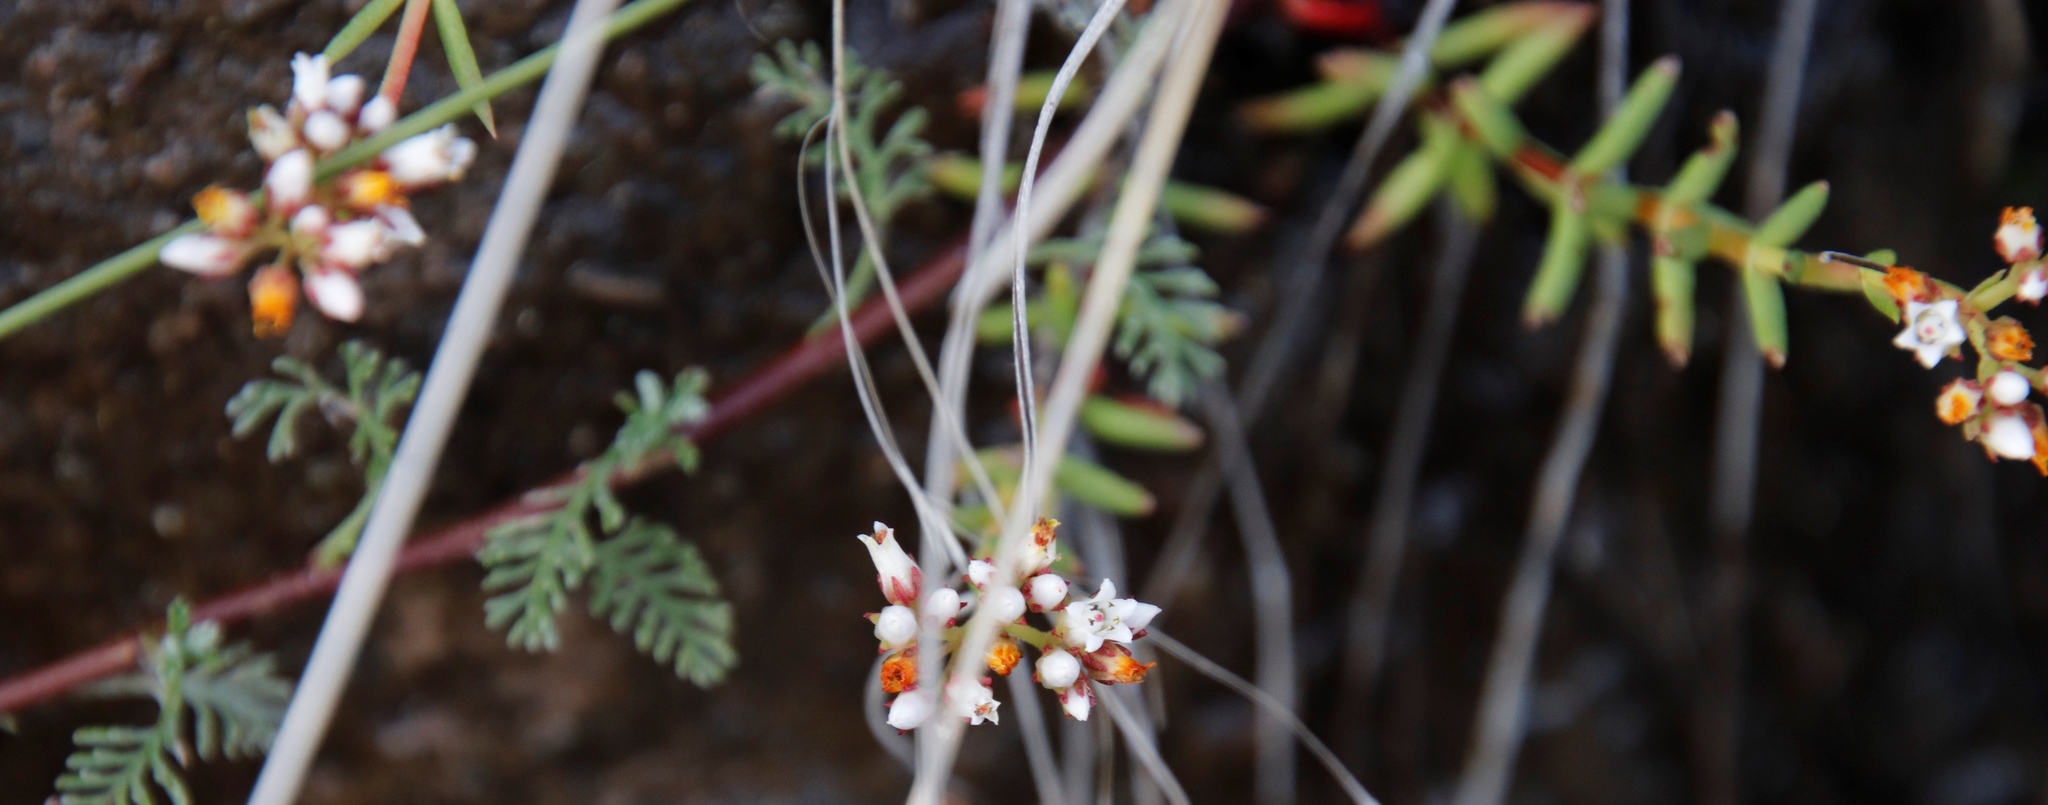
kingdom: Plantae
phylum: Tracheophyta
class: Magnoliopsida
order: Saxifragales
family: Crassulaceae
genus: Crassula
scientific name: Crassula dependens
